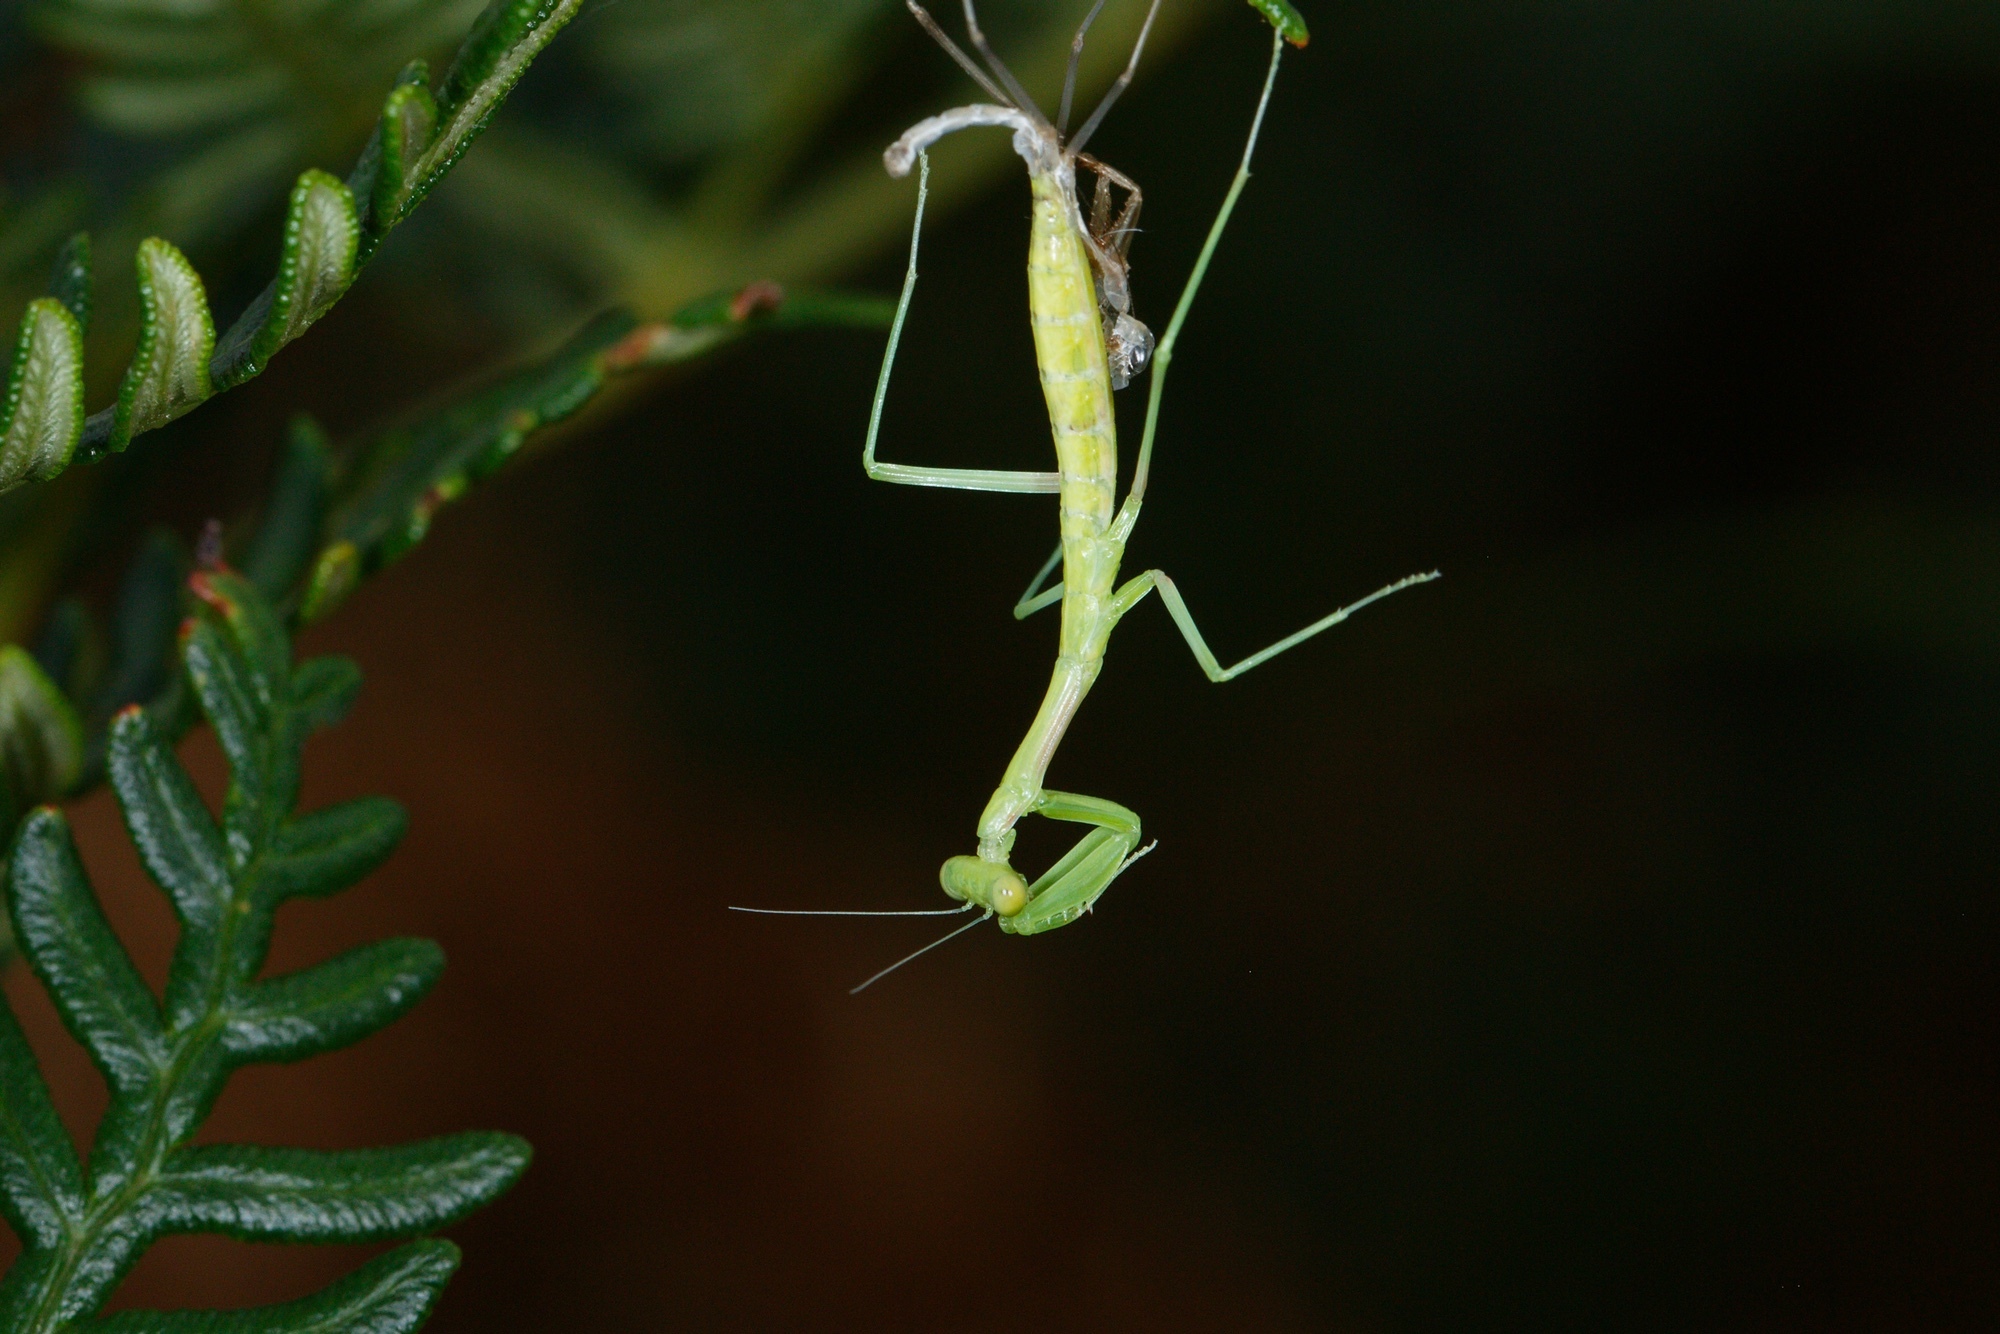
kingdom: Animalia
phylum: Arthropoda
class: Insecta
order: Mantodea
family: Mantidae
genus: Pseudomantis
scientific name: Pseudomantis albofimbriata
